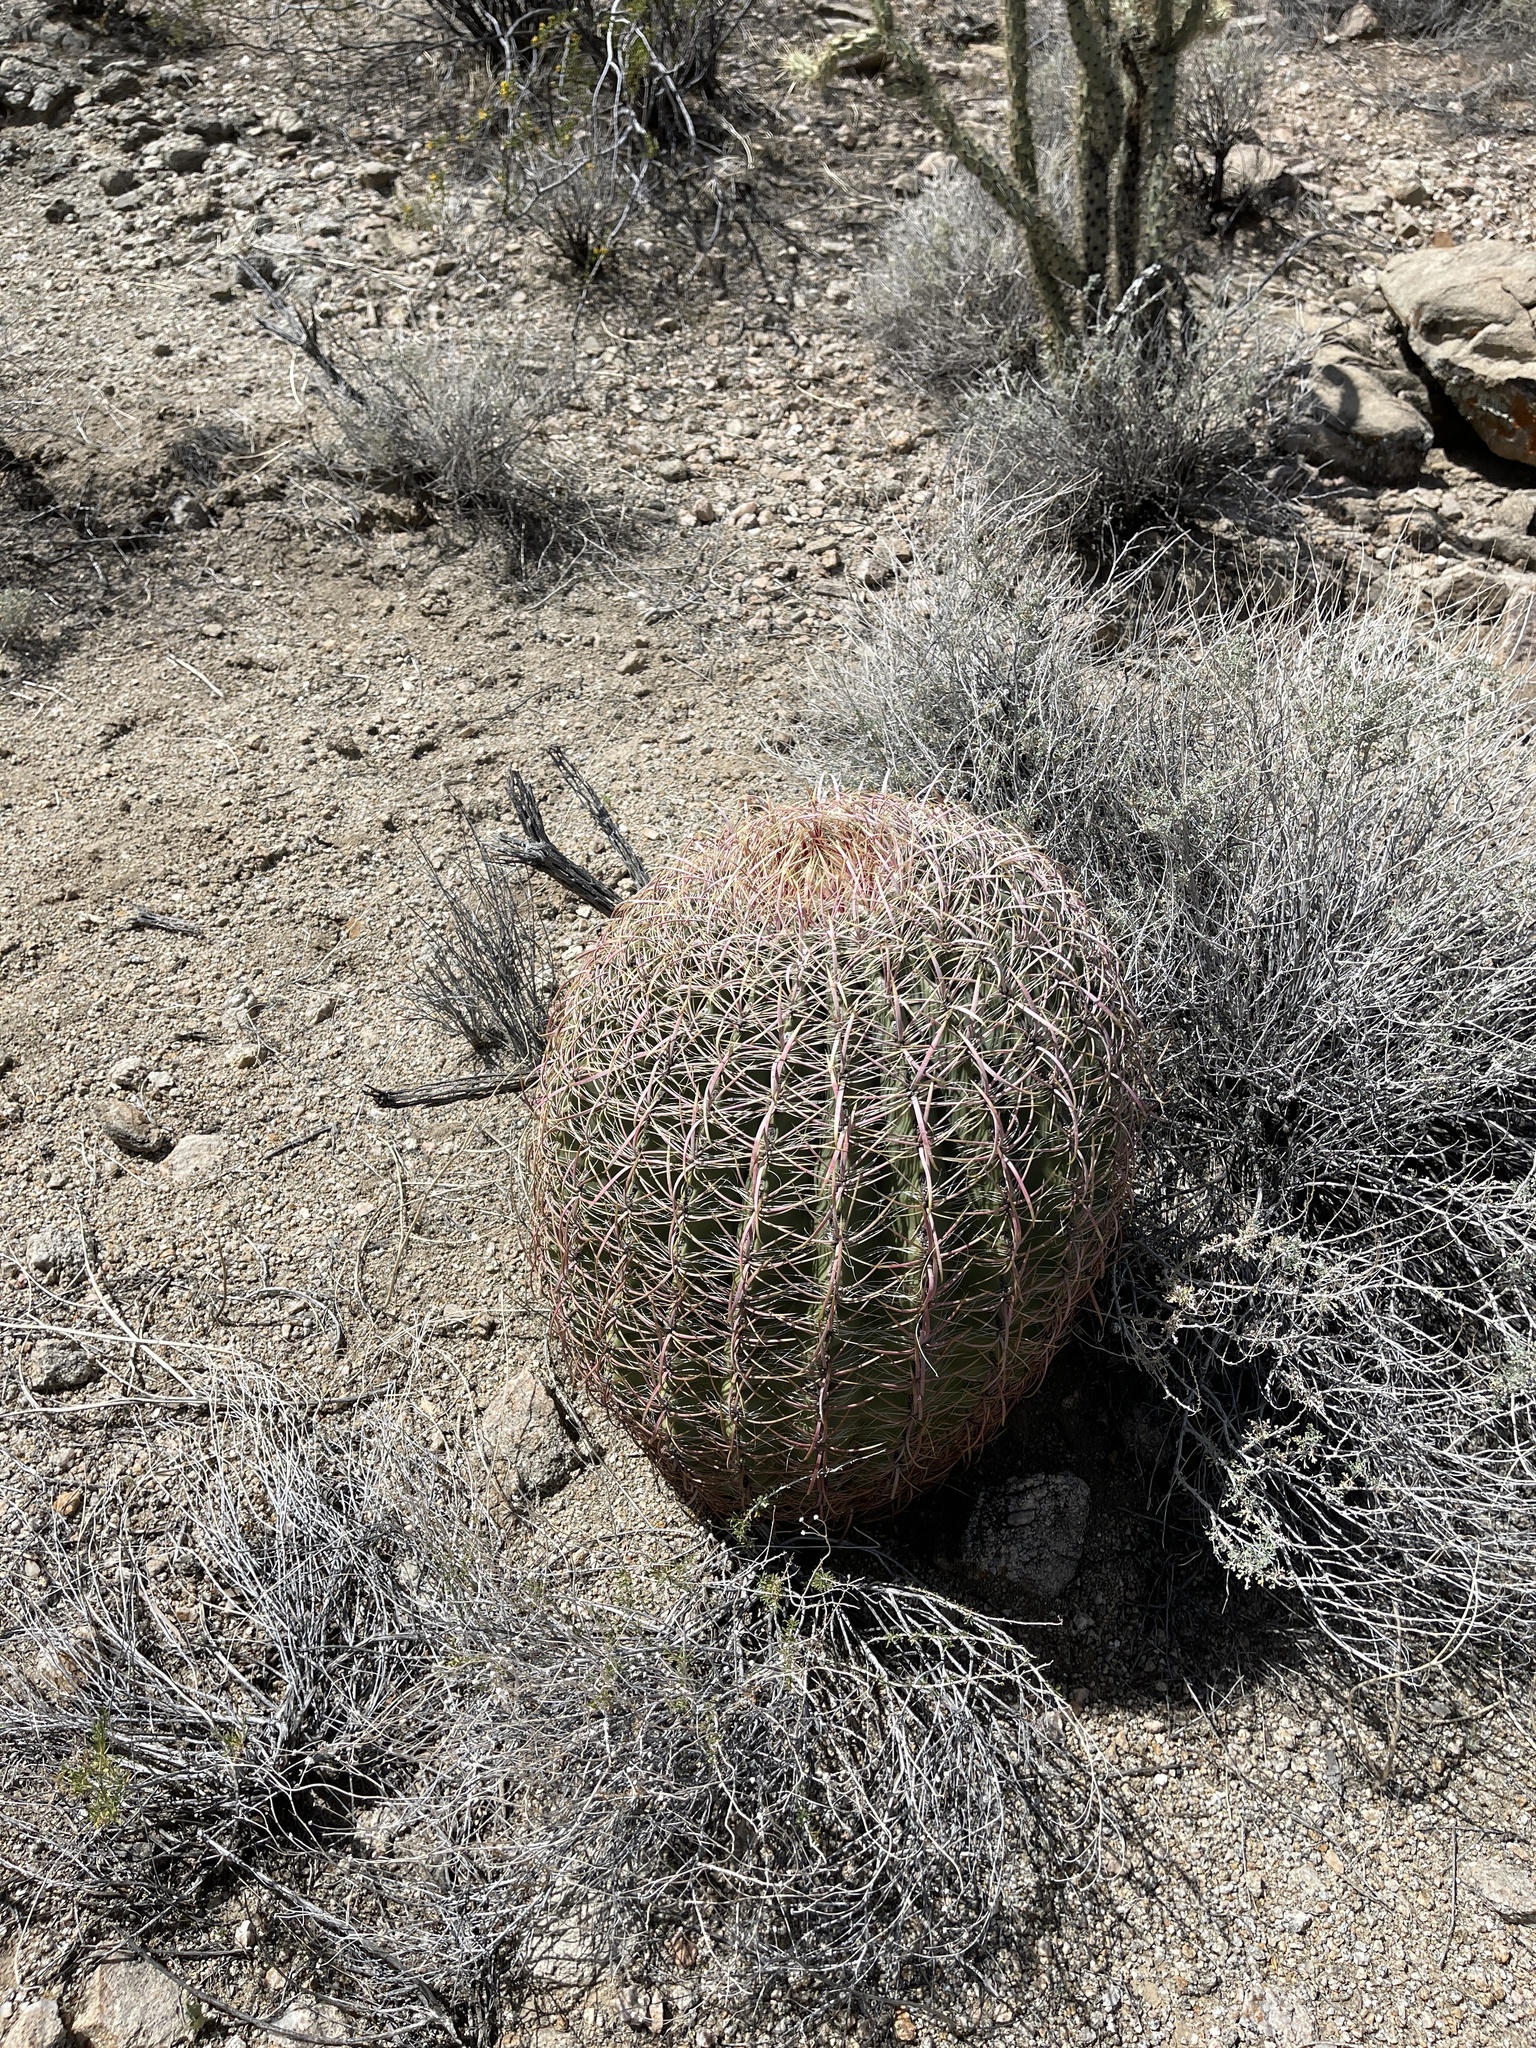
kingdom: Plantae
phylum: Tracheophyta
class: Magnoliopsida
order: Caryophyllales
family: Cactaceae
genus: Ferocactus
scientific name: Ferocactus cylindraceus
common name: California barrel cactus
